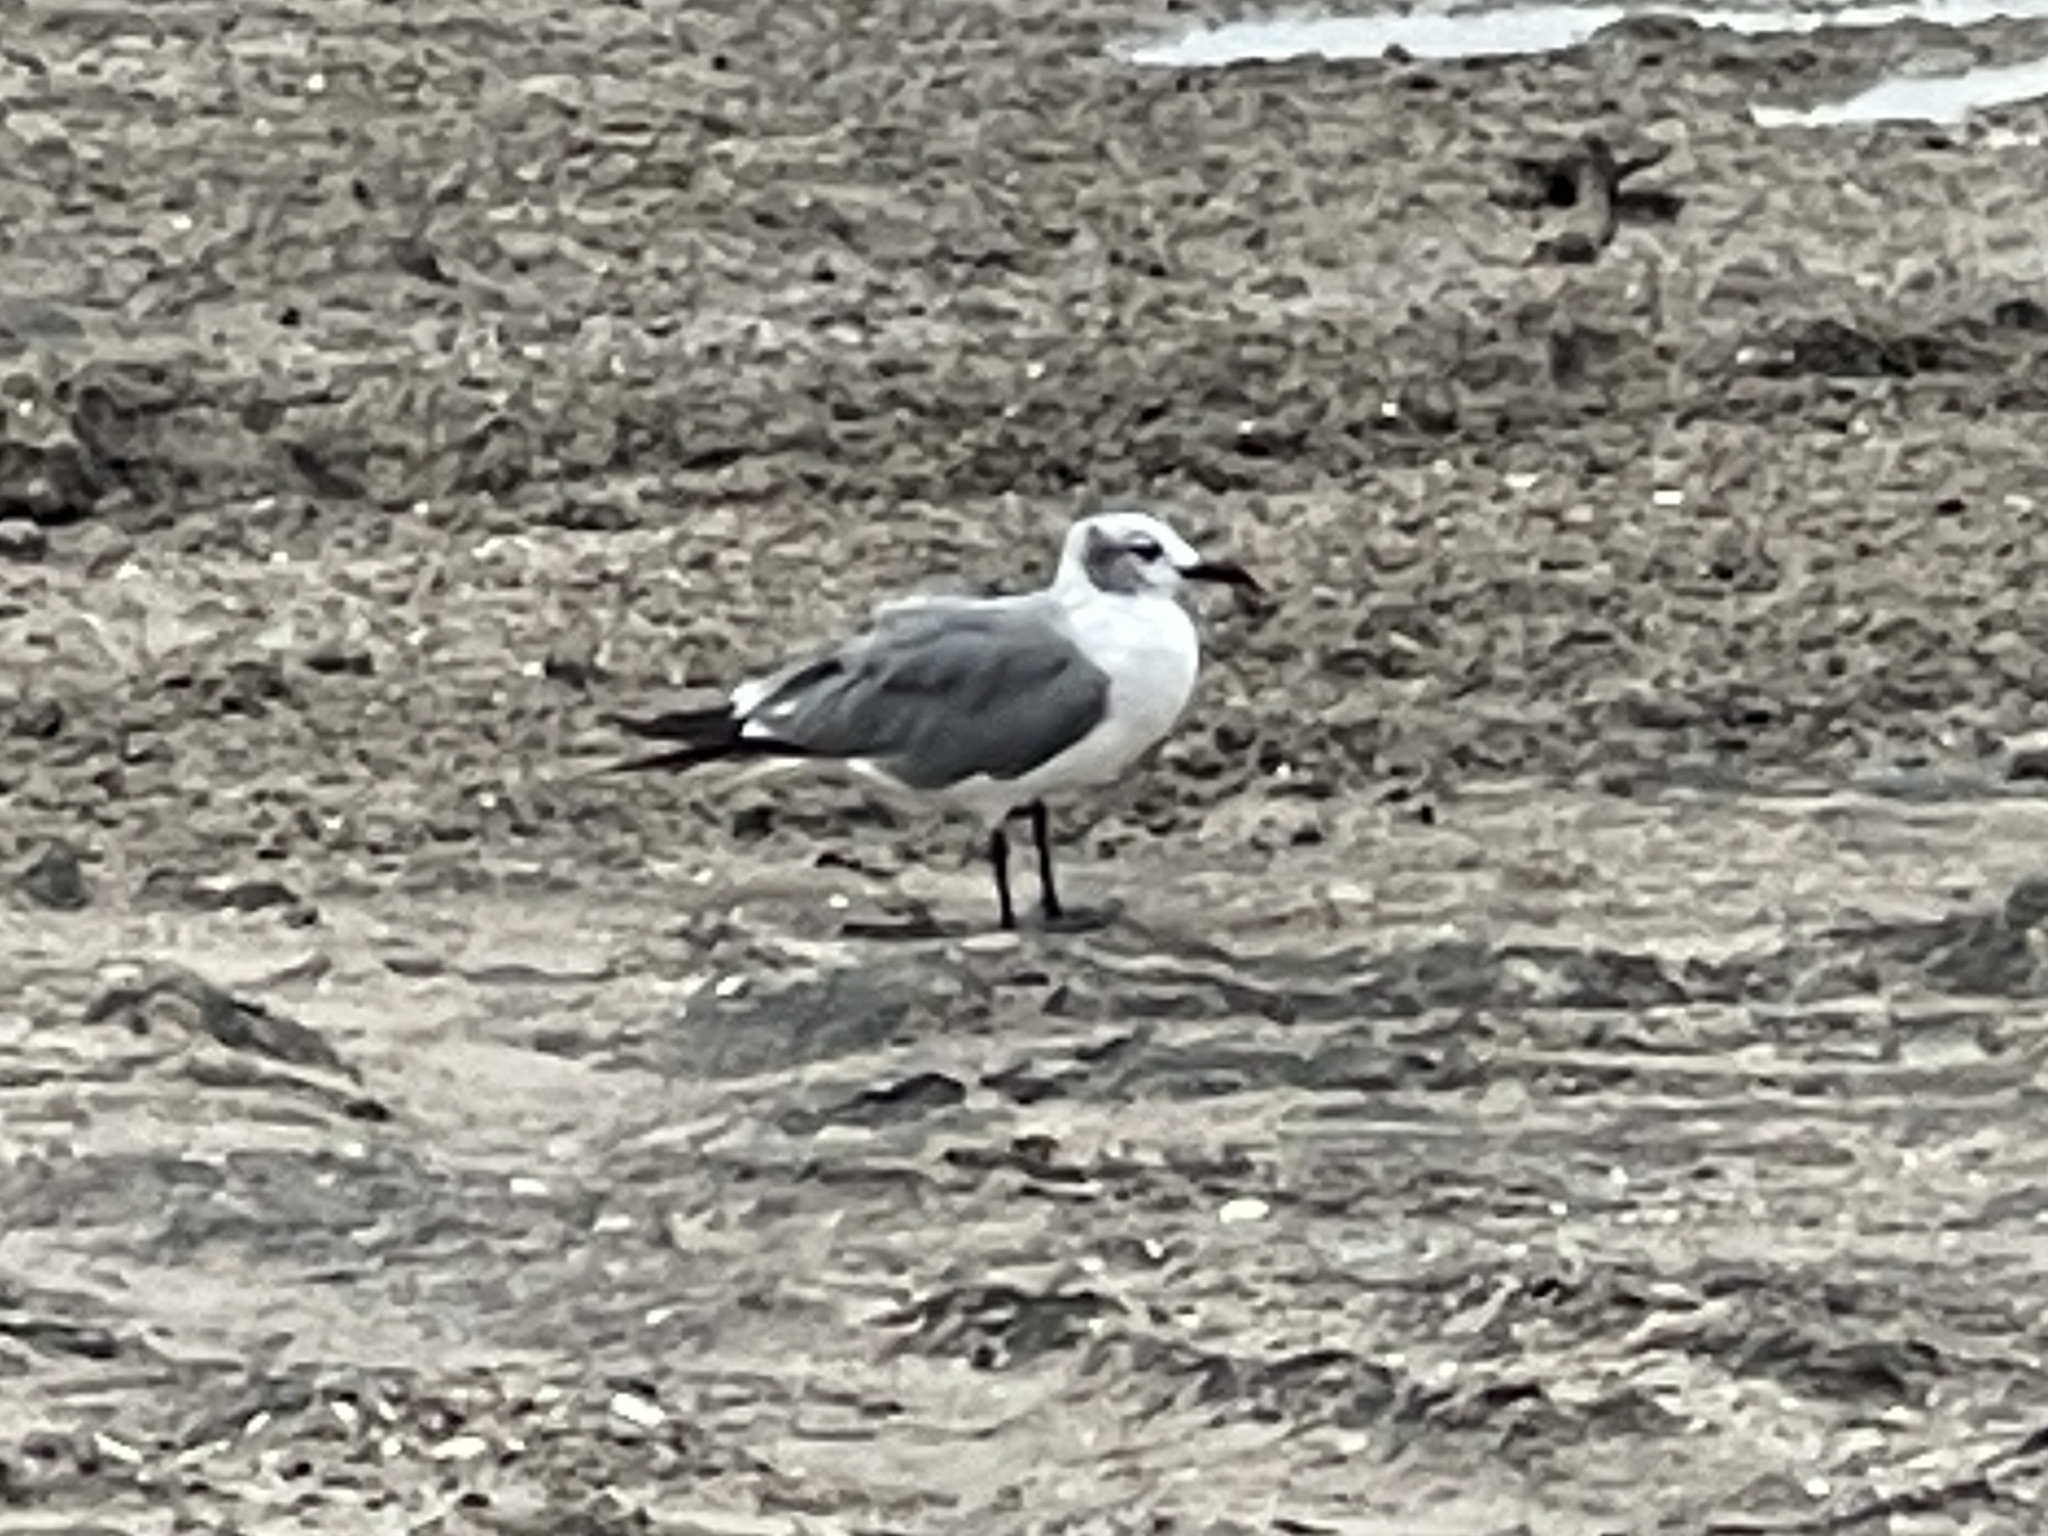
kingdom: Animalia
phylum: Chordata
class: Aves
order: Charadriiformes
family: Laridae
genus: Leucophaeus
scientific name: Leucophaeus atricilla
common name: Laughing gull
